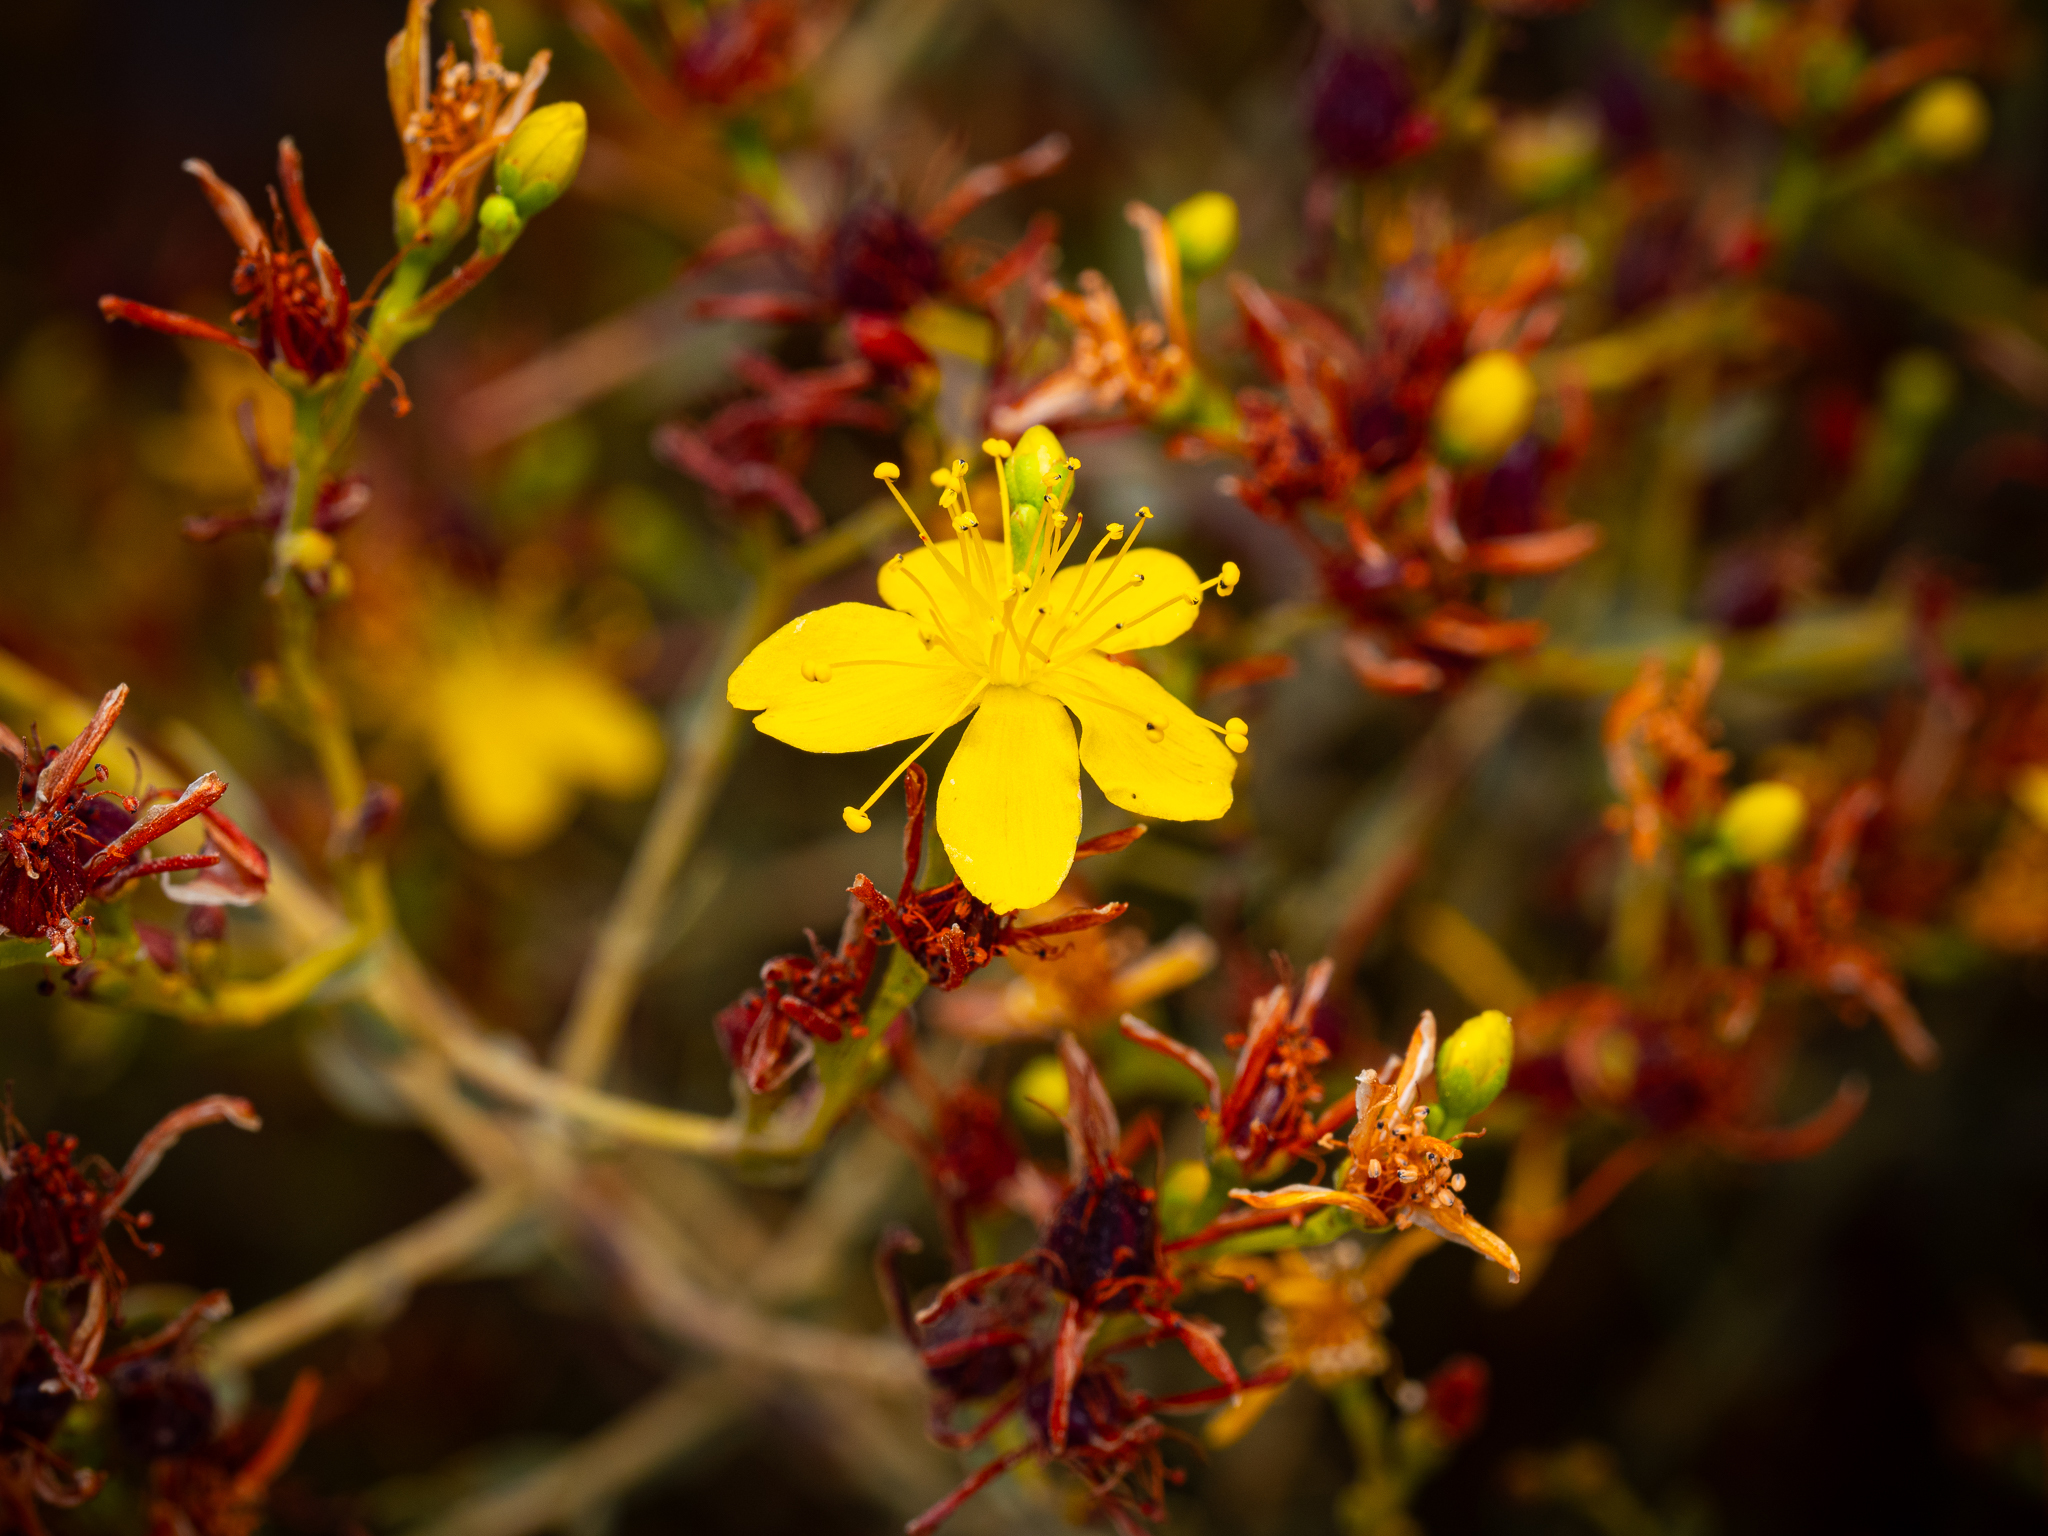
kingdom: Plantae
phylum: Tracheophyta
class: Magnoliopsida
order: Malpighiales
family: Hypericaceae
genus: Hypericum
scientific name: Hypericum triquetrifolium
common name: Tangled hypericum
